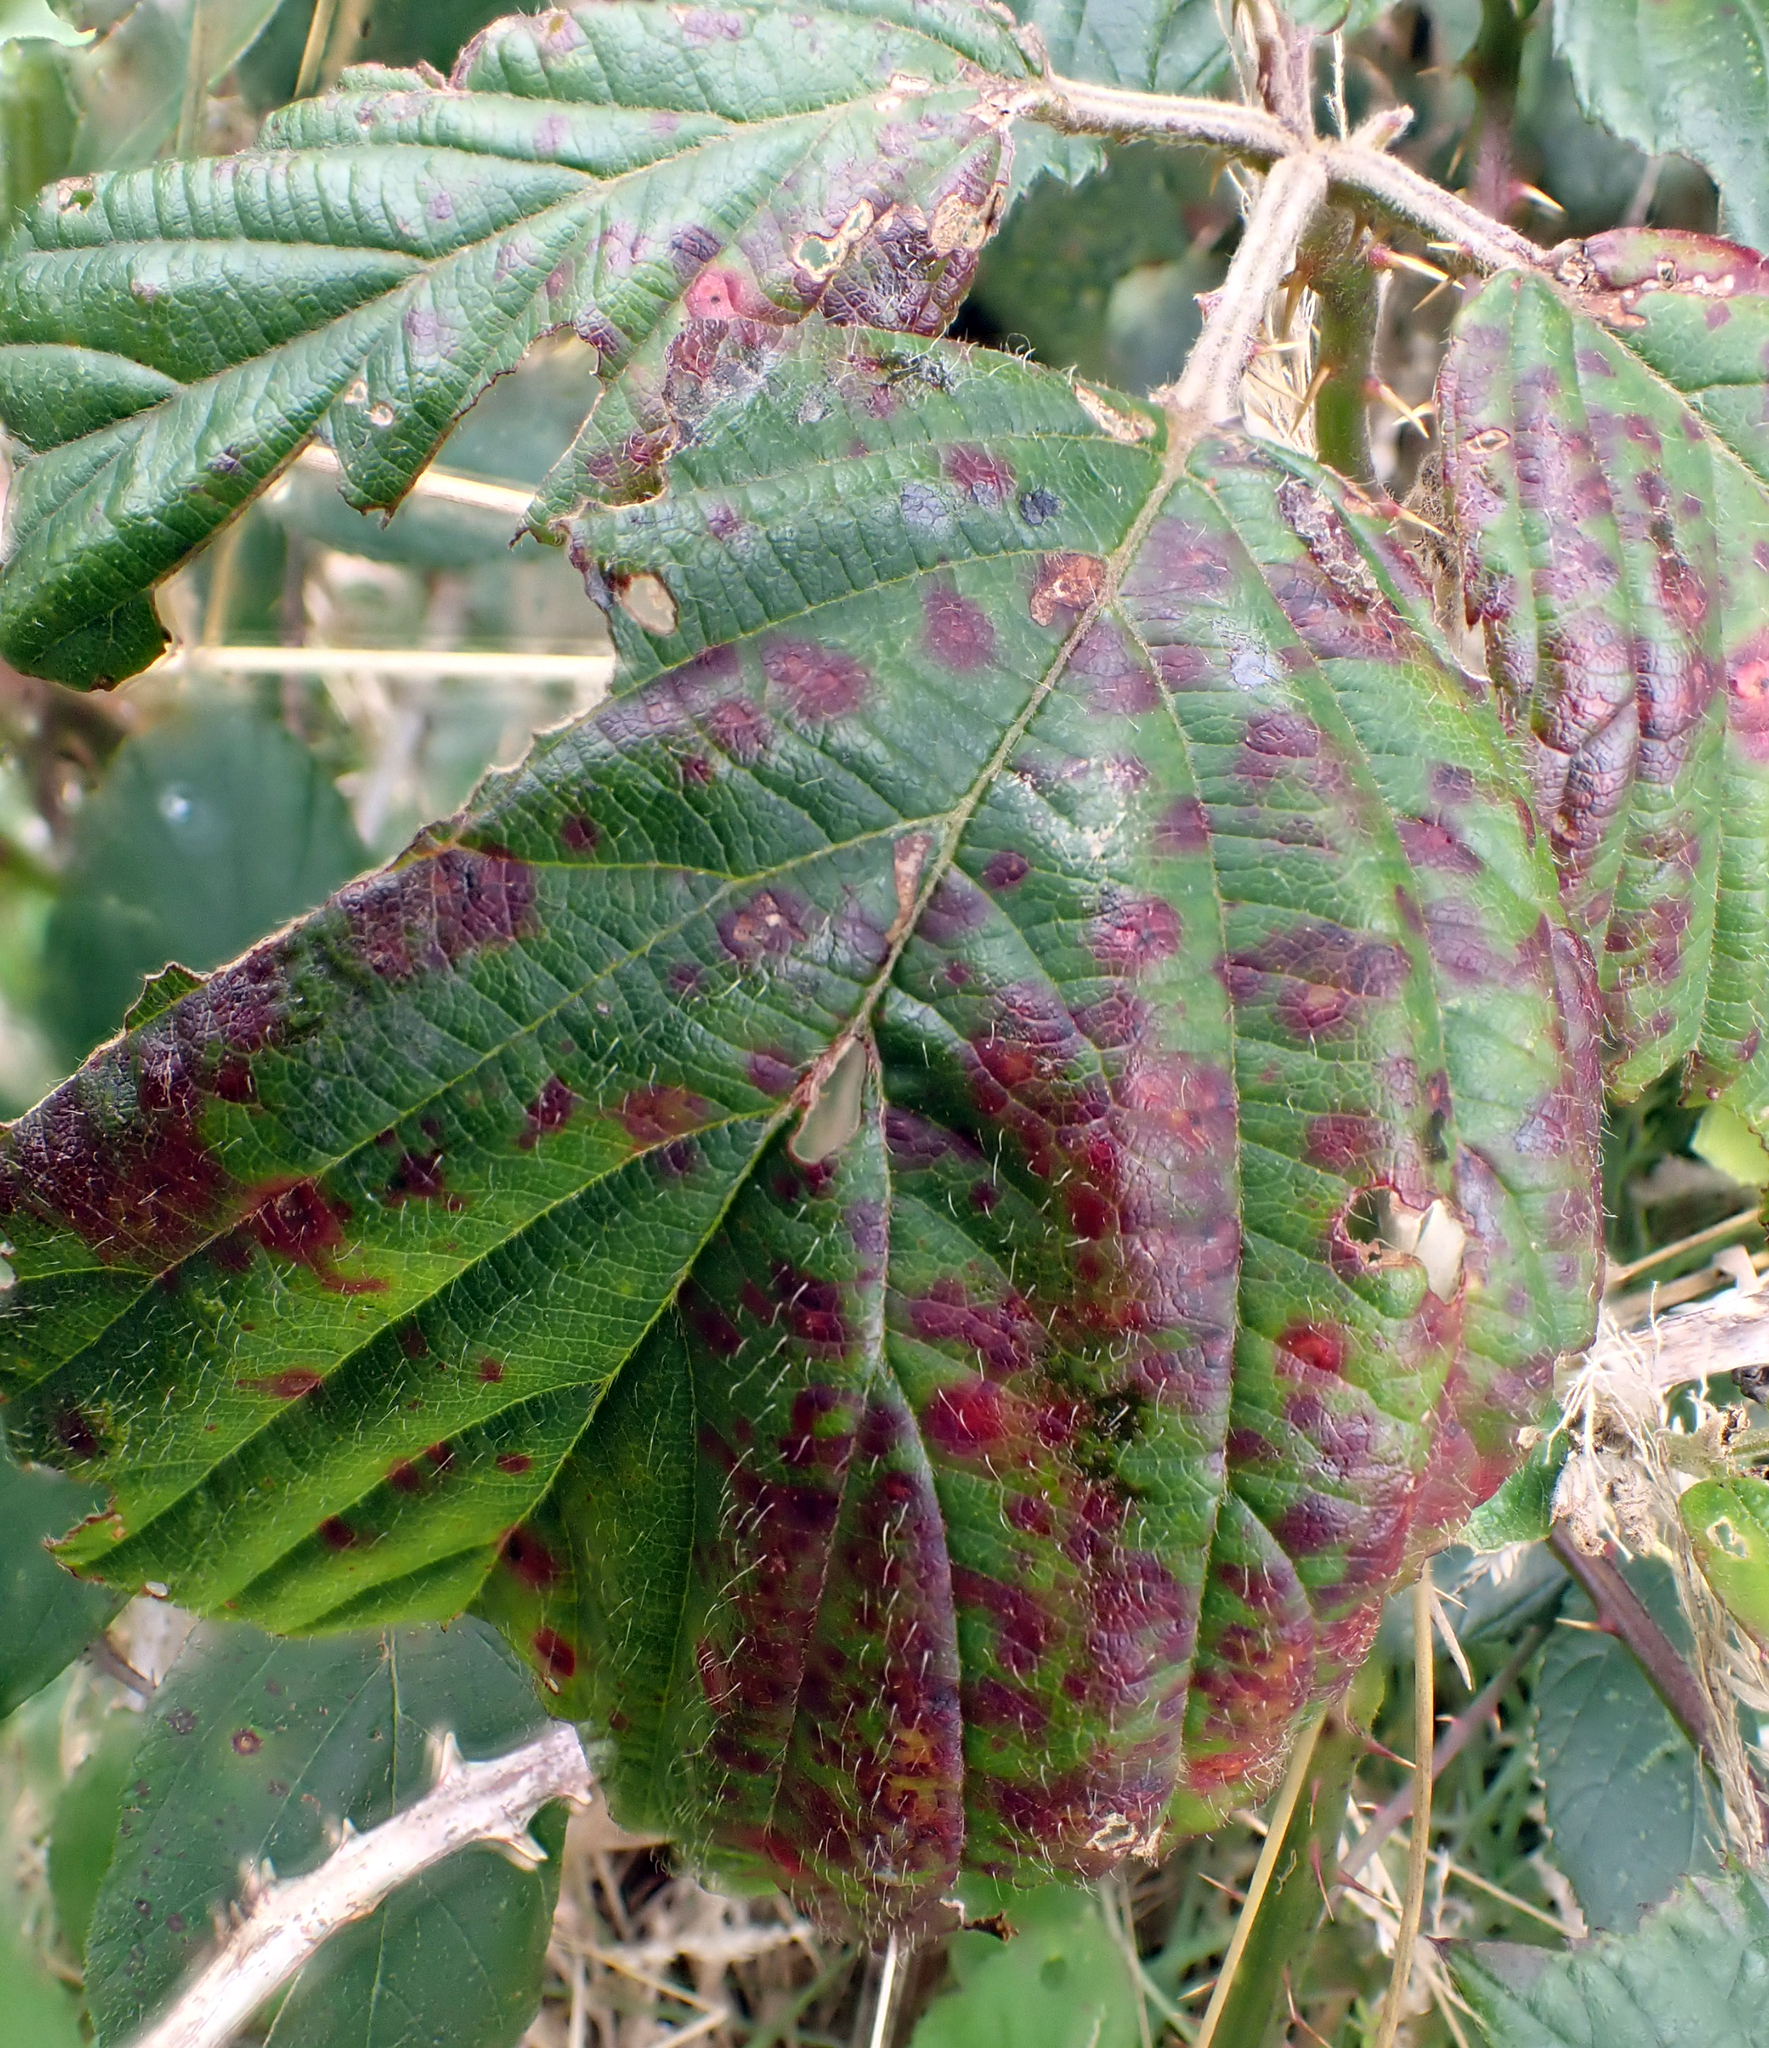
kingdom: Fungi
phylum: Basidiomycota
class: Pucciniomycetes
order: Pucciniales
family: Phragmidiaceae
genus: Phragmidium
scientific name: Phragmidium violaceum
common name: Violet bramble rust
